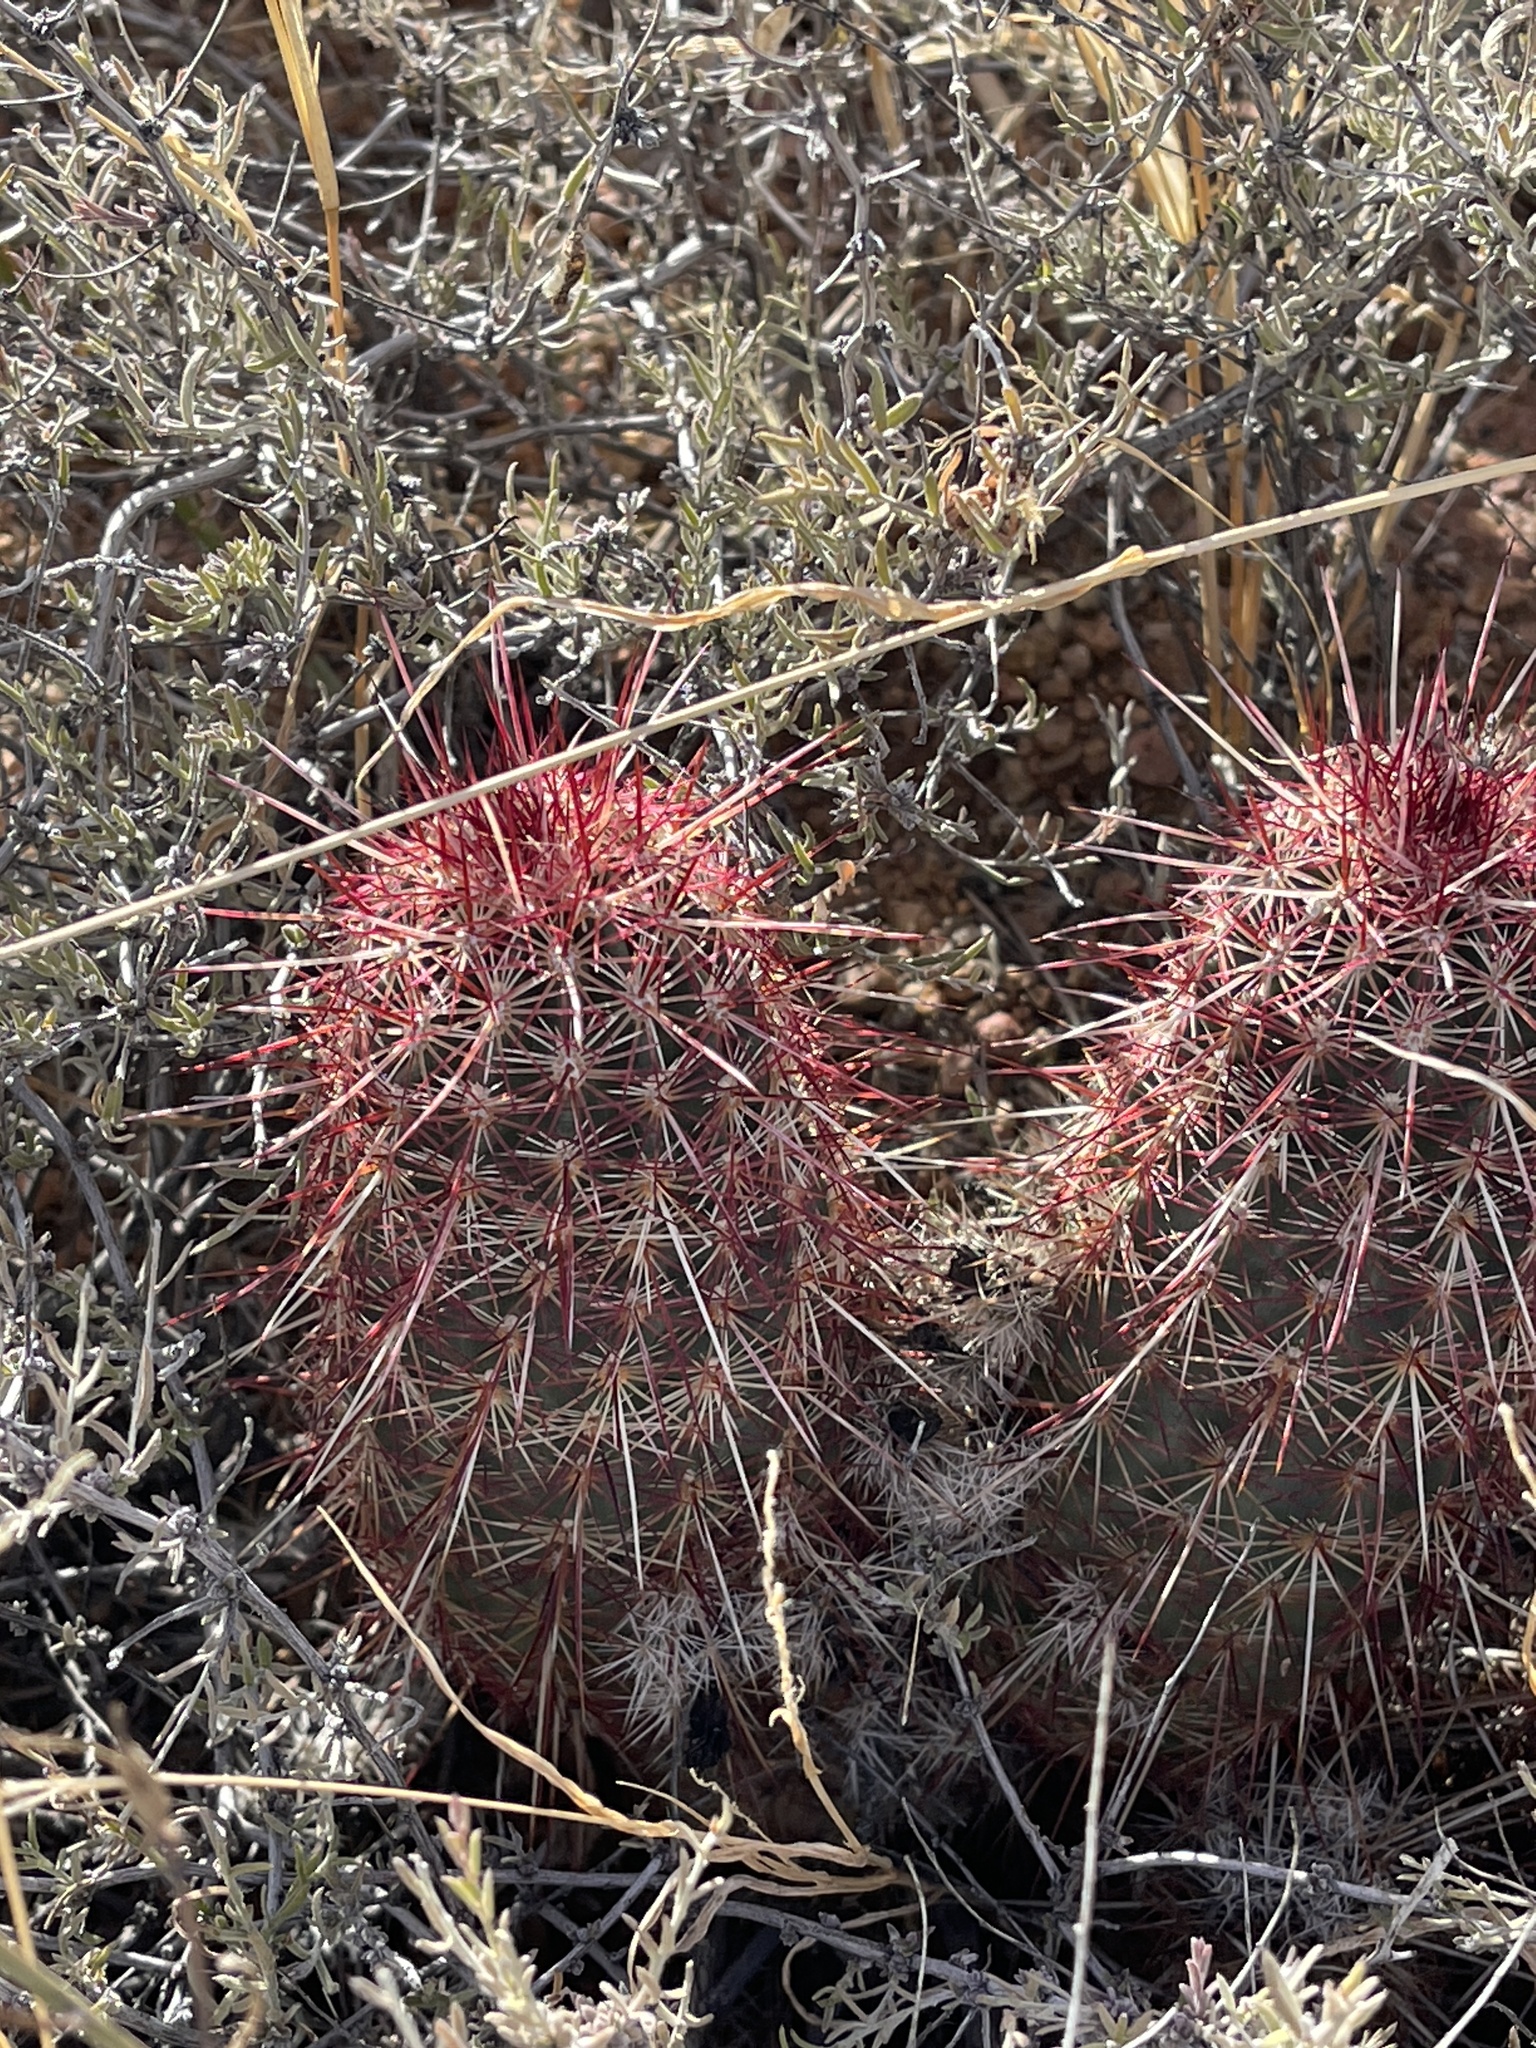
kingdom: Plantae
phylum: Tracheophyta
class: Magnoliopsida
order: Caryophyllales
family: Cactaceae
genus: Echinocereus
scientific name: Echinocereus viridiflorus
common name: Nylon hedgehog cactus
